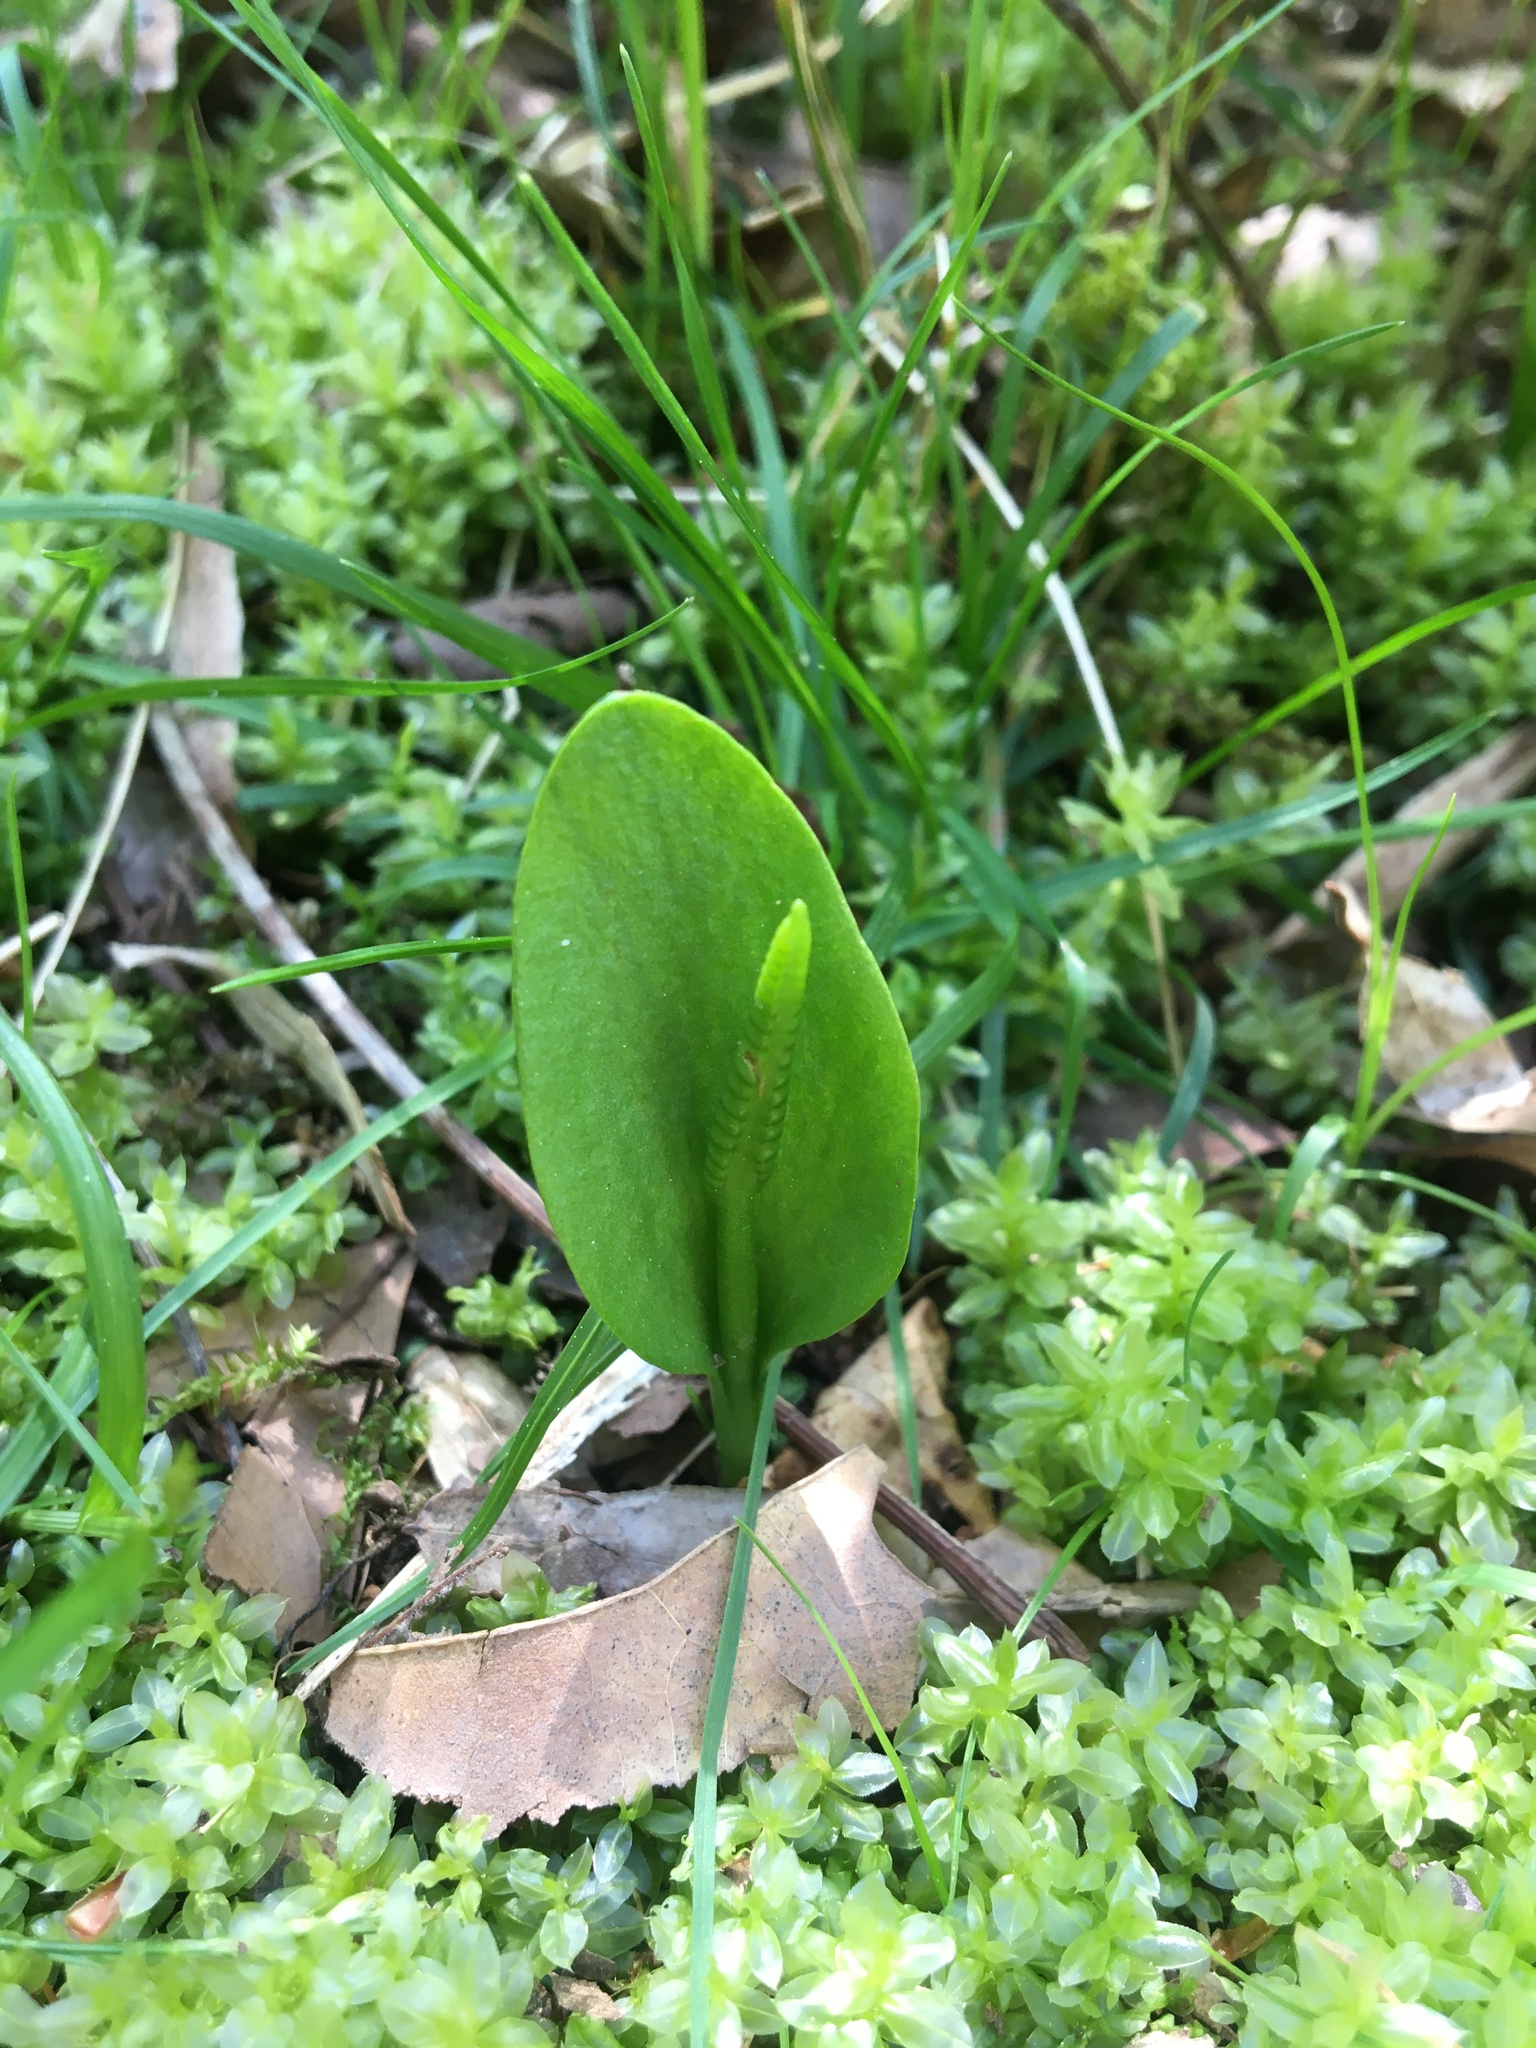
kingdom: Plantae
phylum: Tracheophyta
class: Polypodiopsida
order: Ophioglossales
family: Ophioglossaceae
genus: Ophioglossum
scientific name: Ophioglossum vulgatum
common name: Adder's-tongue
